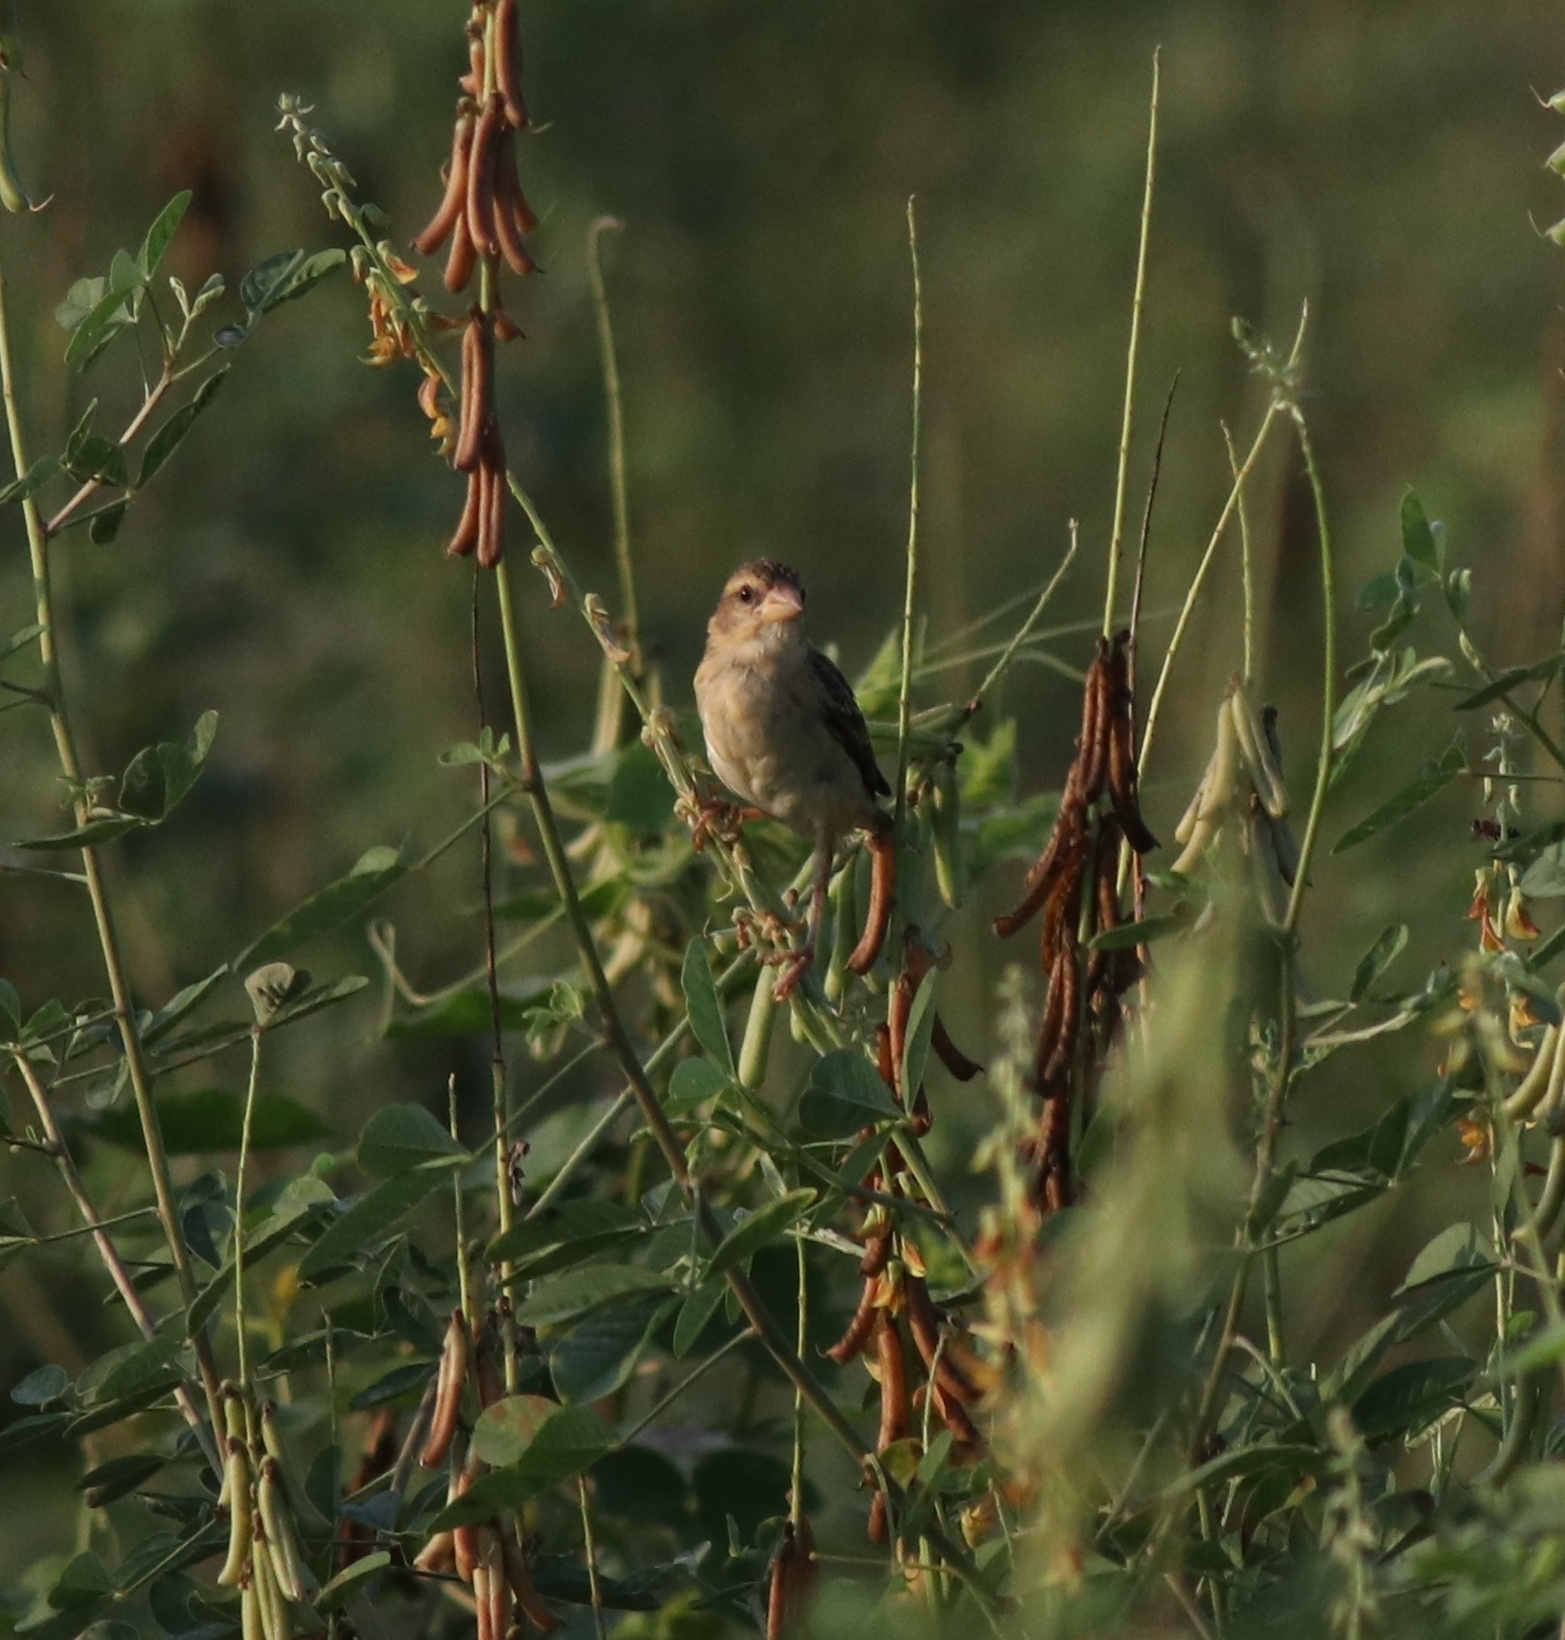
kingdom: Animalia
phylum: Chordata
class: Aves
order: Passeriformes
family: Ploceidae
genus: Ploceus
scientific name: Ploceus philippinus
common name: Baya weaver
